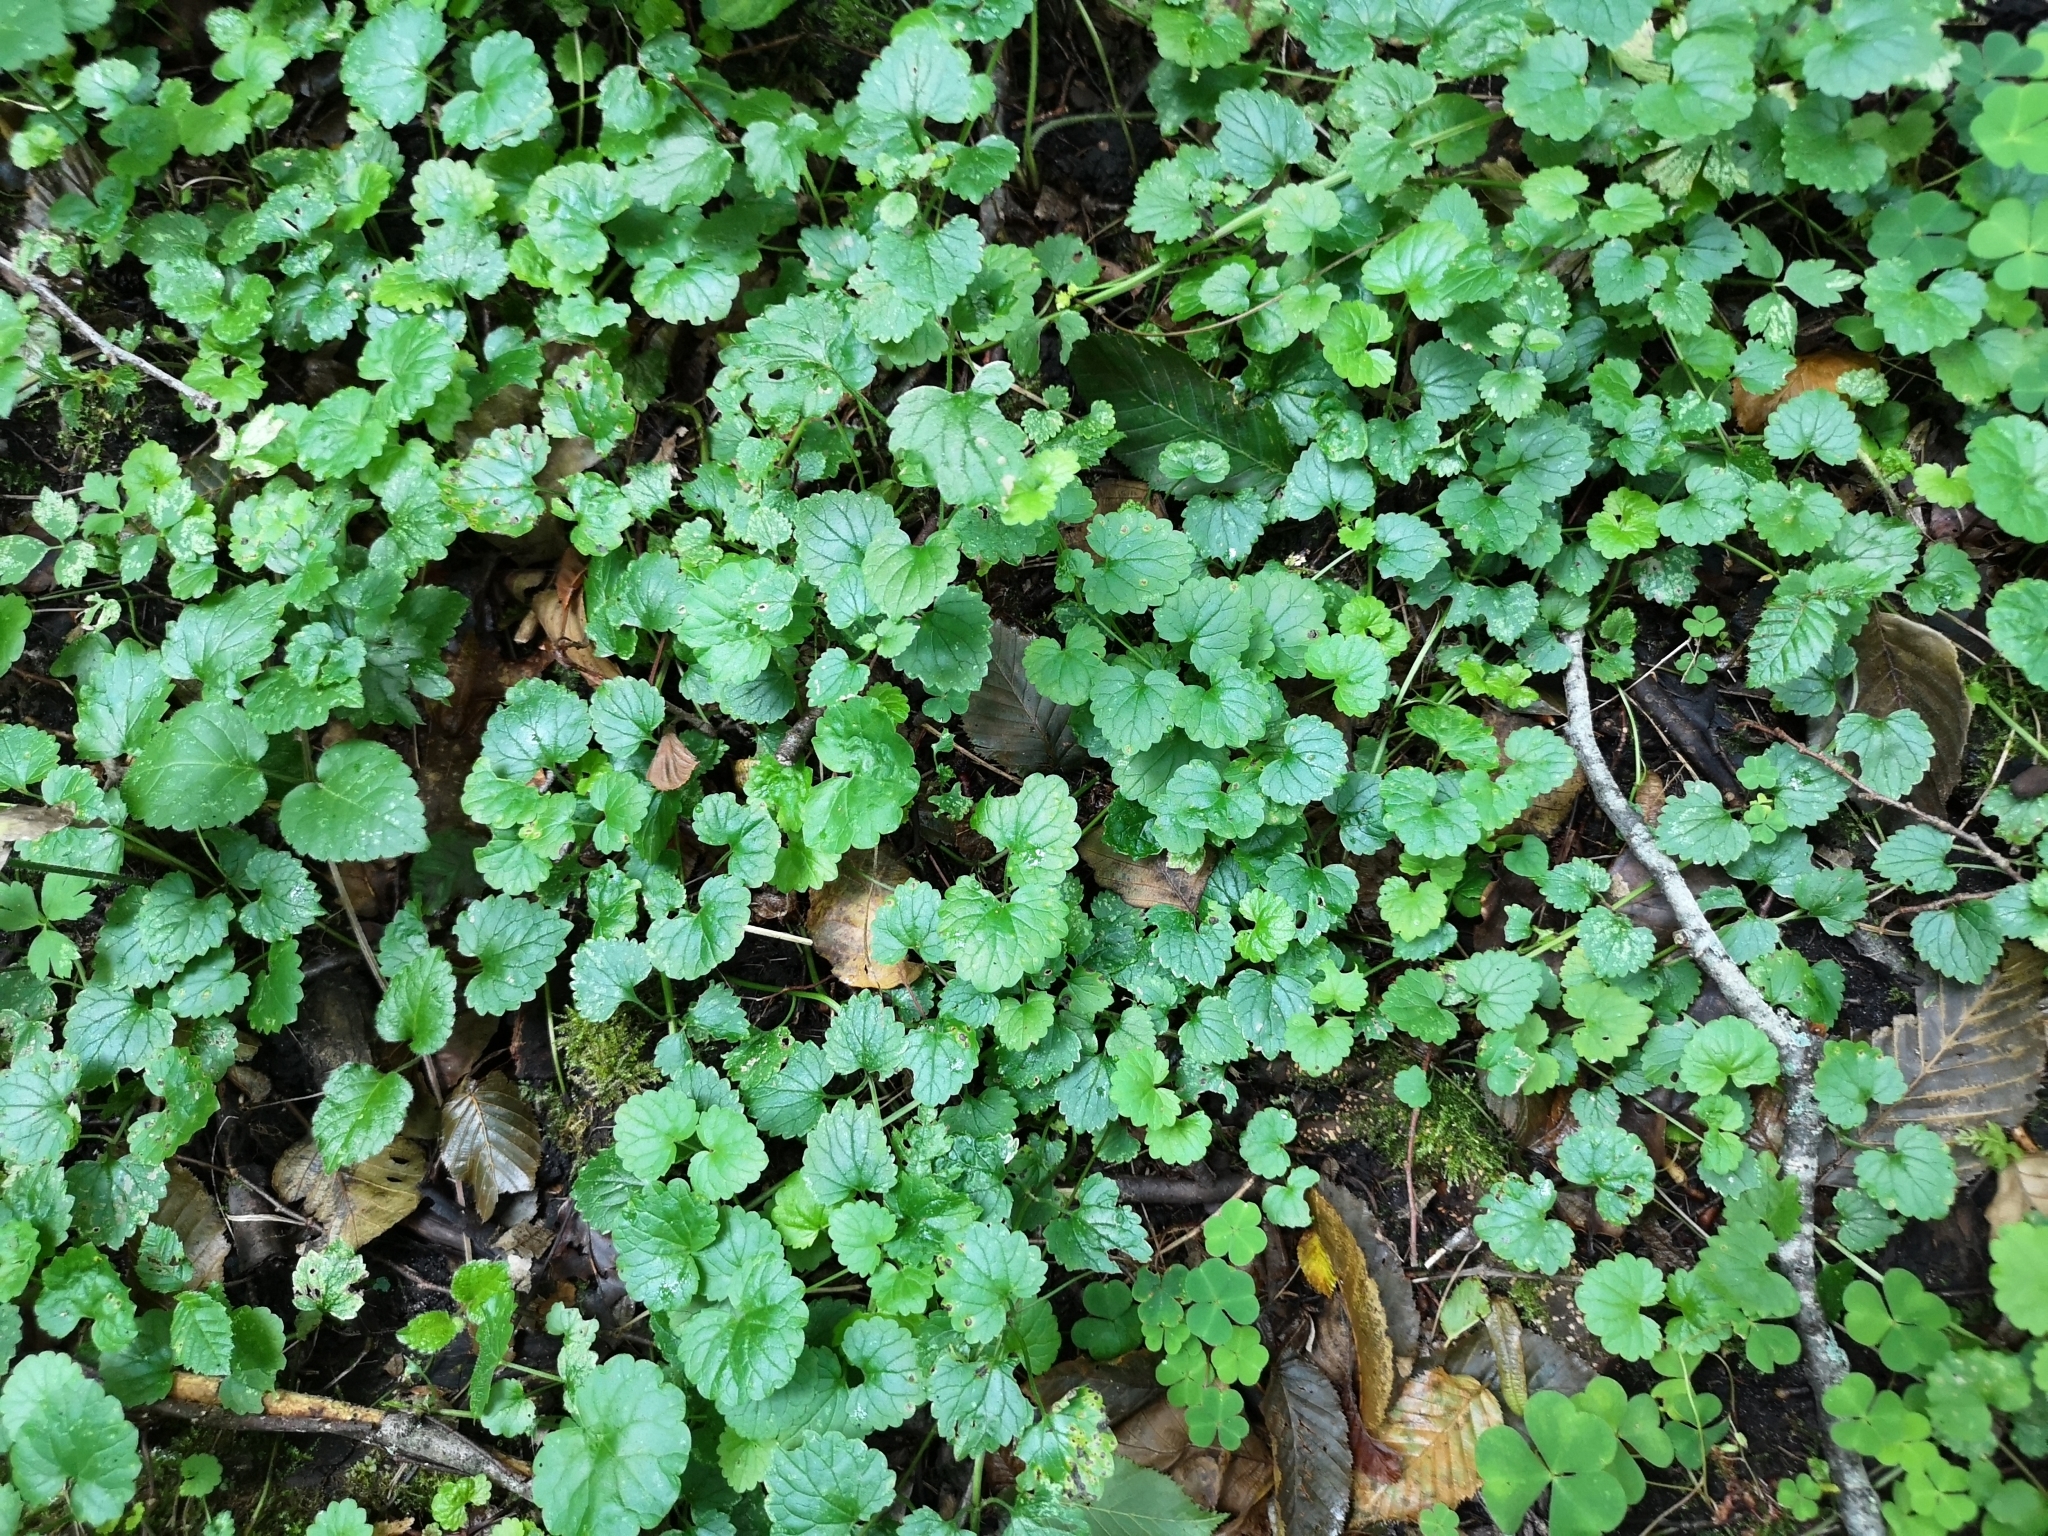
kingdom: Plantae
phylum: Tracheophyta
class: Magnoliopsida
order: Lamiales
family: Lamiaceae
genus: Glechoma
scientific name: Glechoma hederacea
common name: Ground ivy
